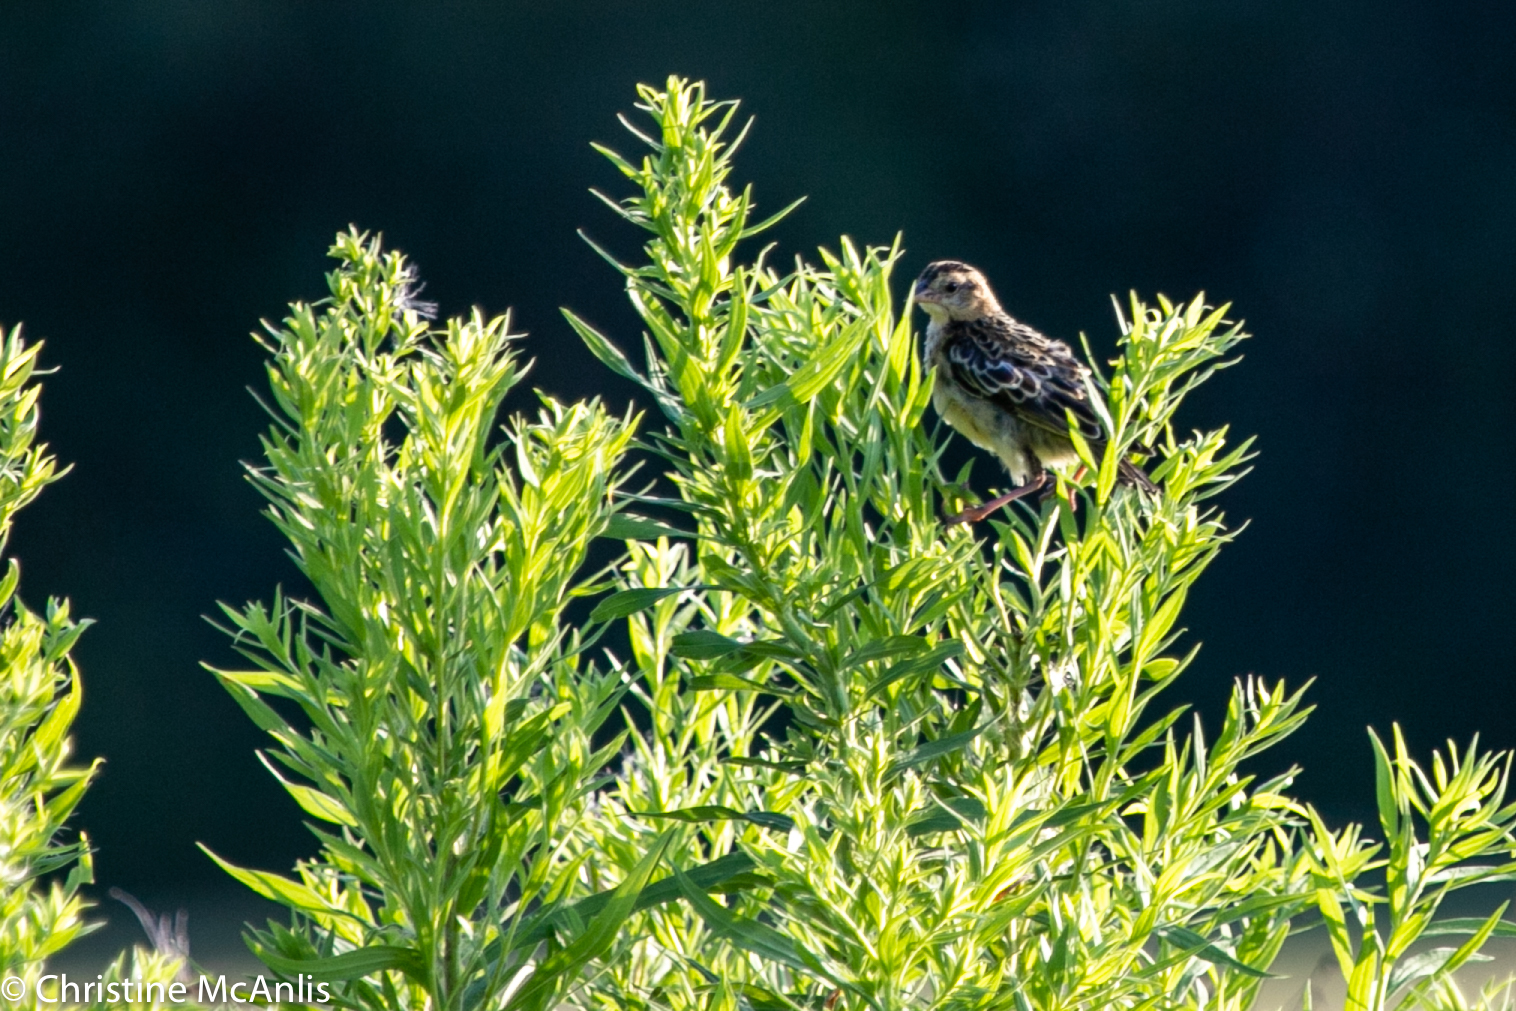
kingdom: Animalia
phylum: Chordata
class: Aves
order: Passeriformes
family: Icteridae
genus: Dolichonyx
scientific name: Dolichonyx oryzivorus
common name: Bobolink
